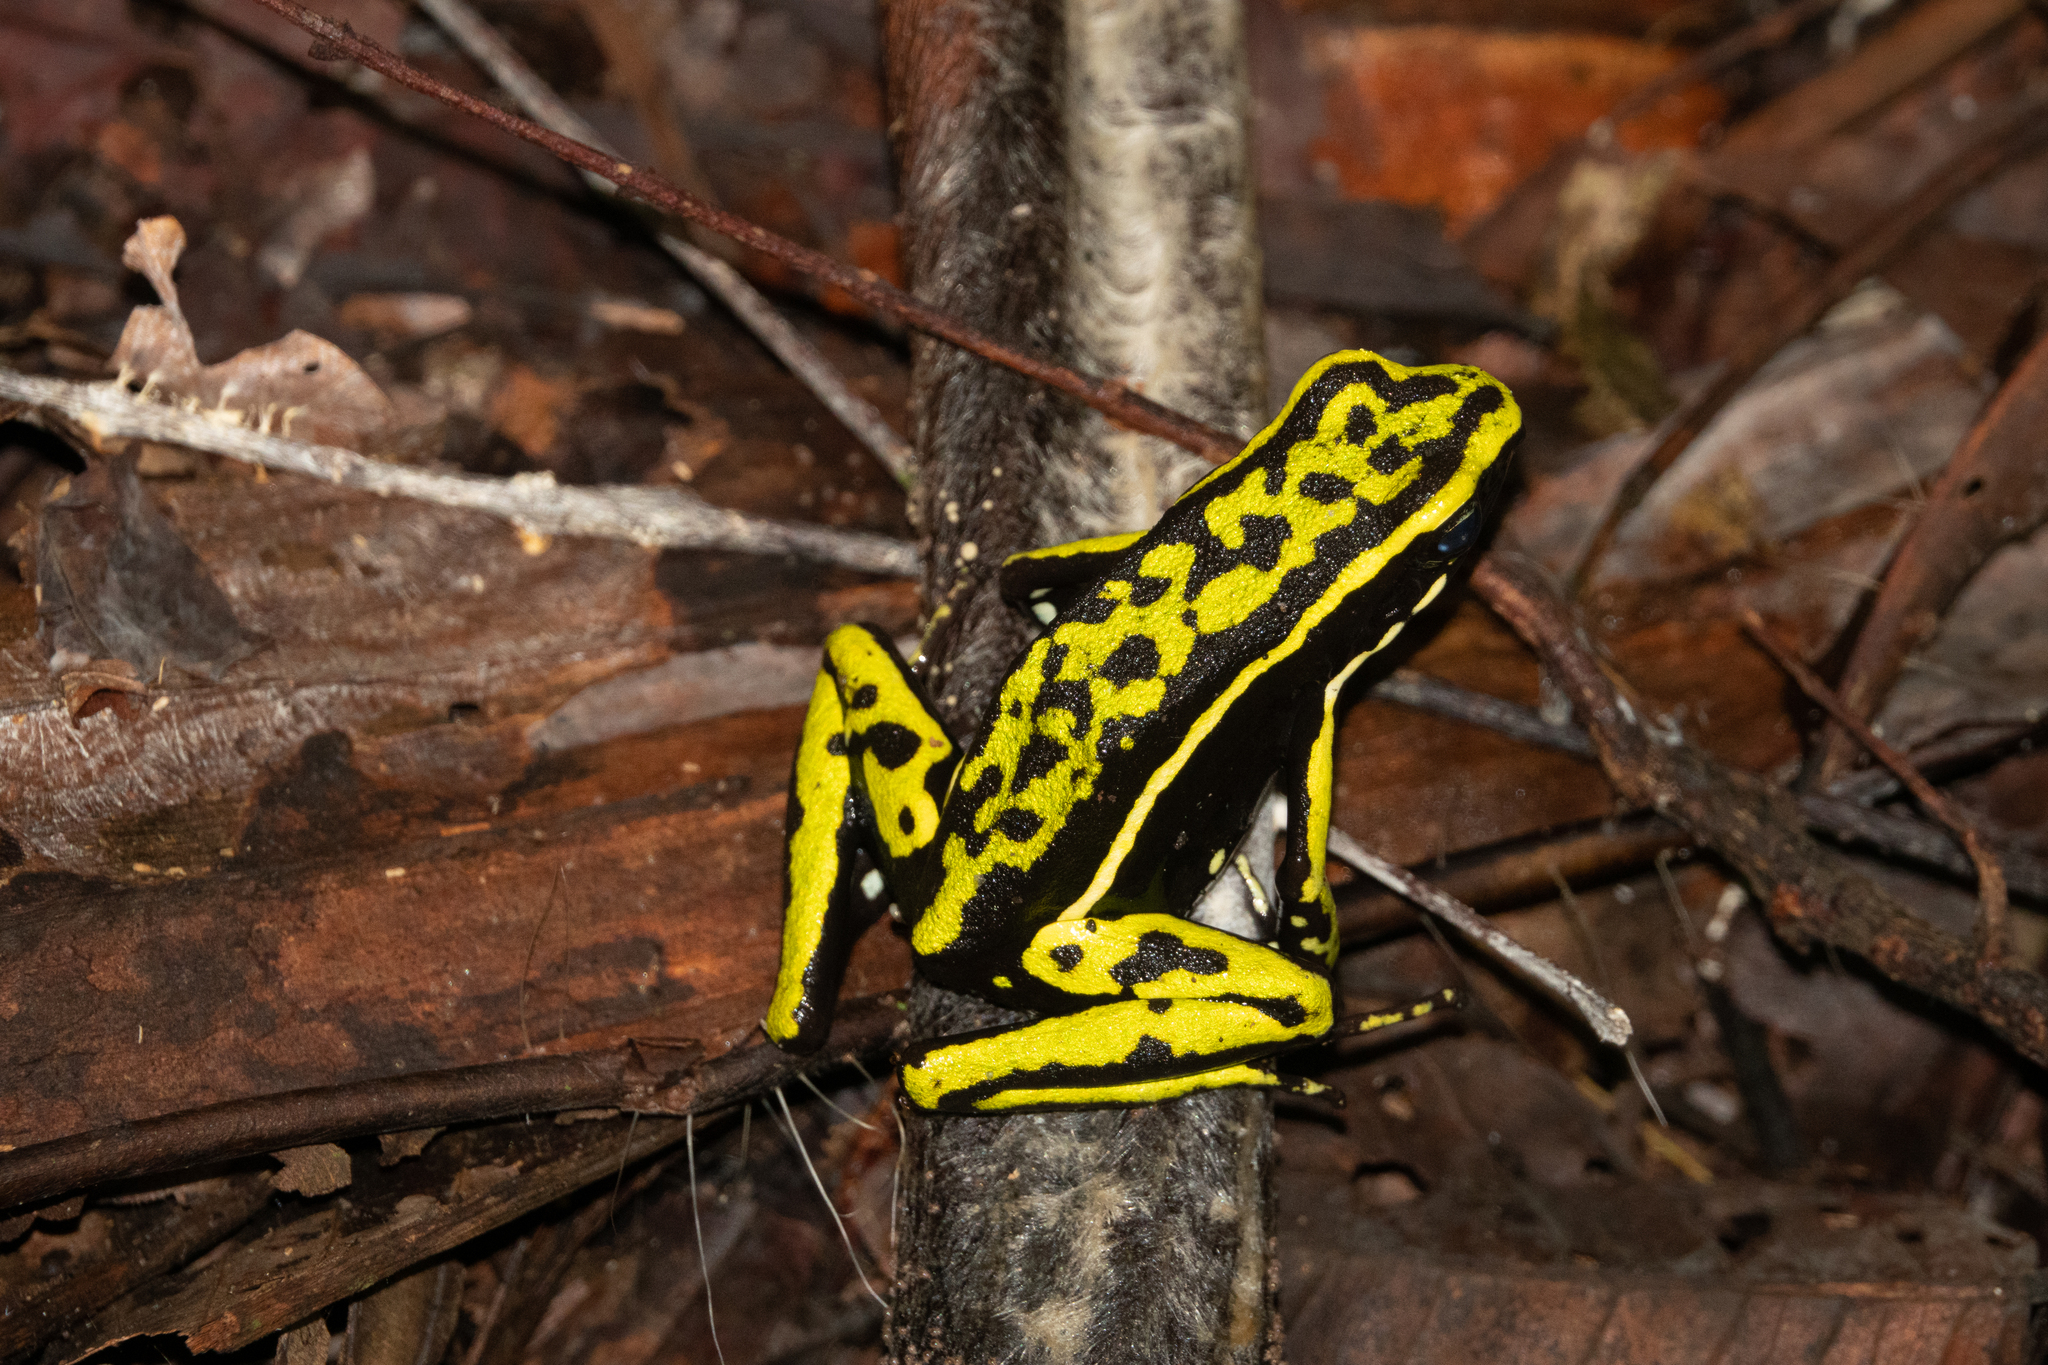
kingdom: Animalia
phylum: Chordata
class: Amphibia
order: Anura
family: Dendrobatidae
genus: Ameerega
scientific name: Ameerega trivittata
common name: Three-striped arrow-poison frog
